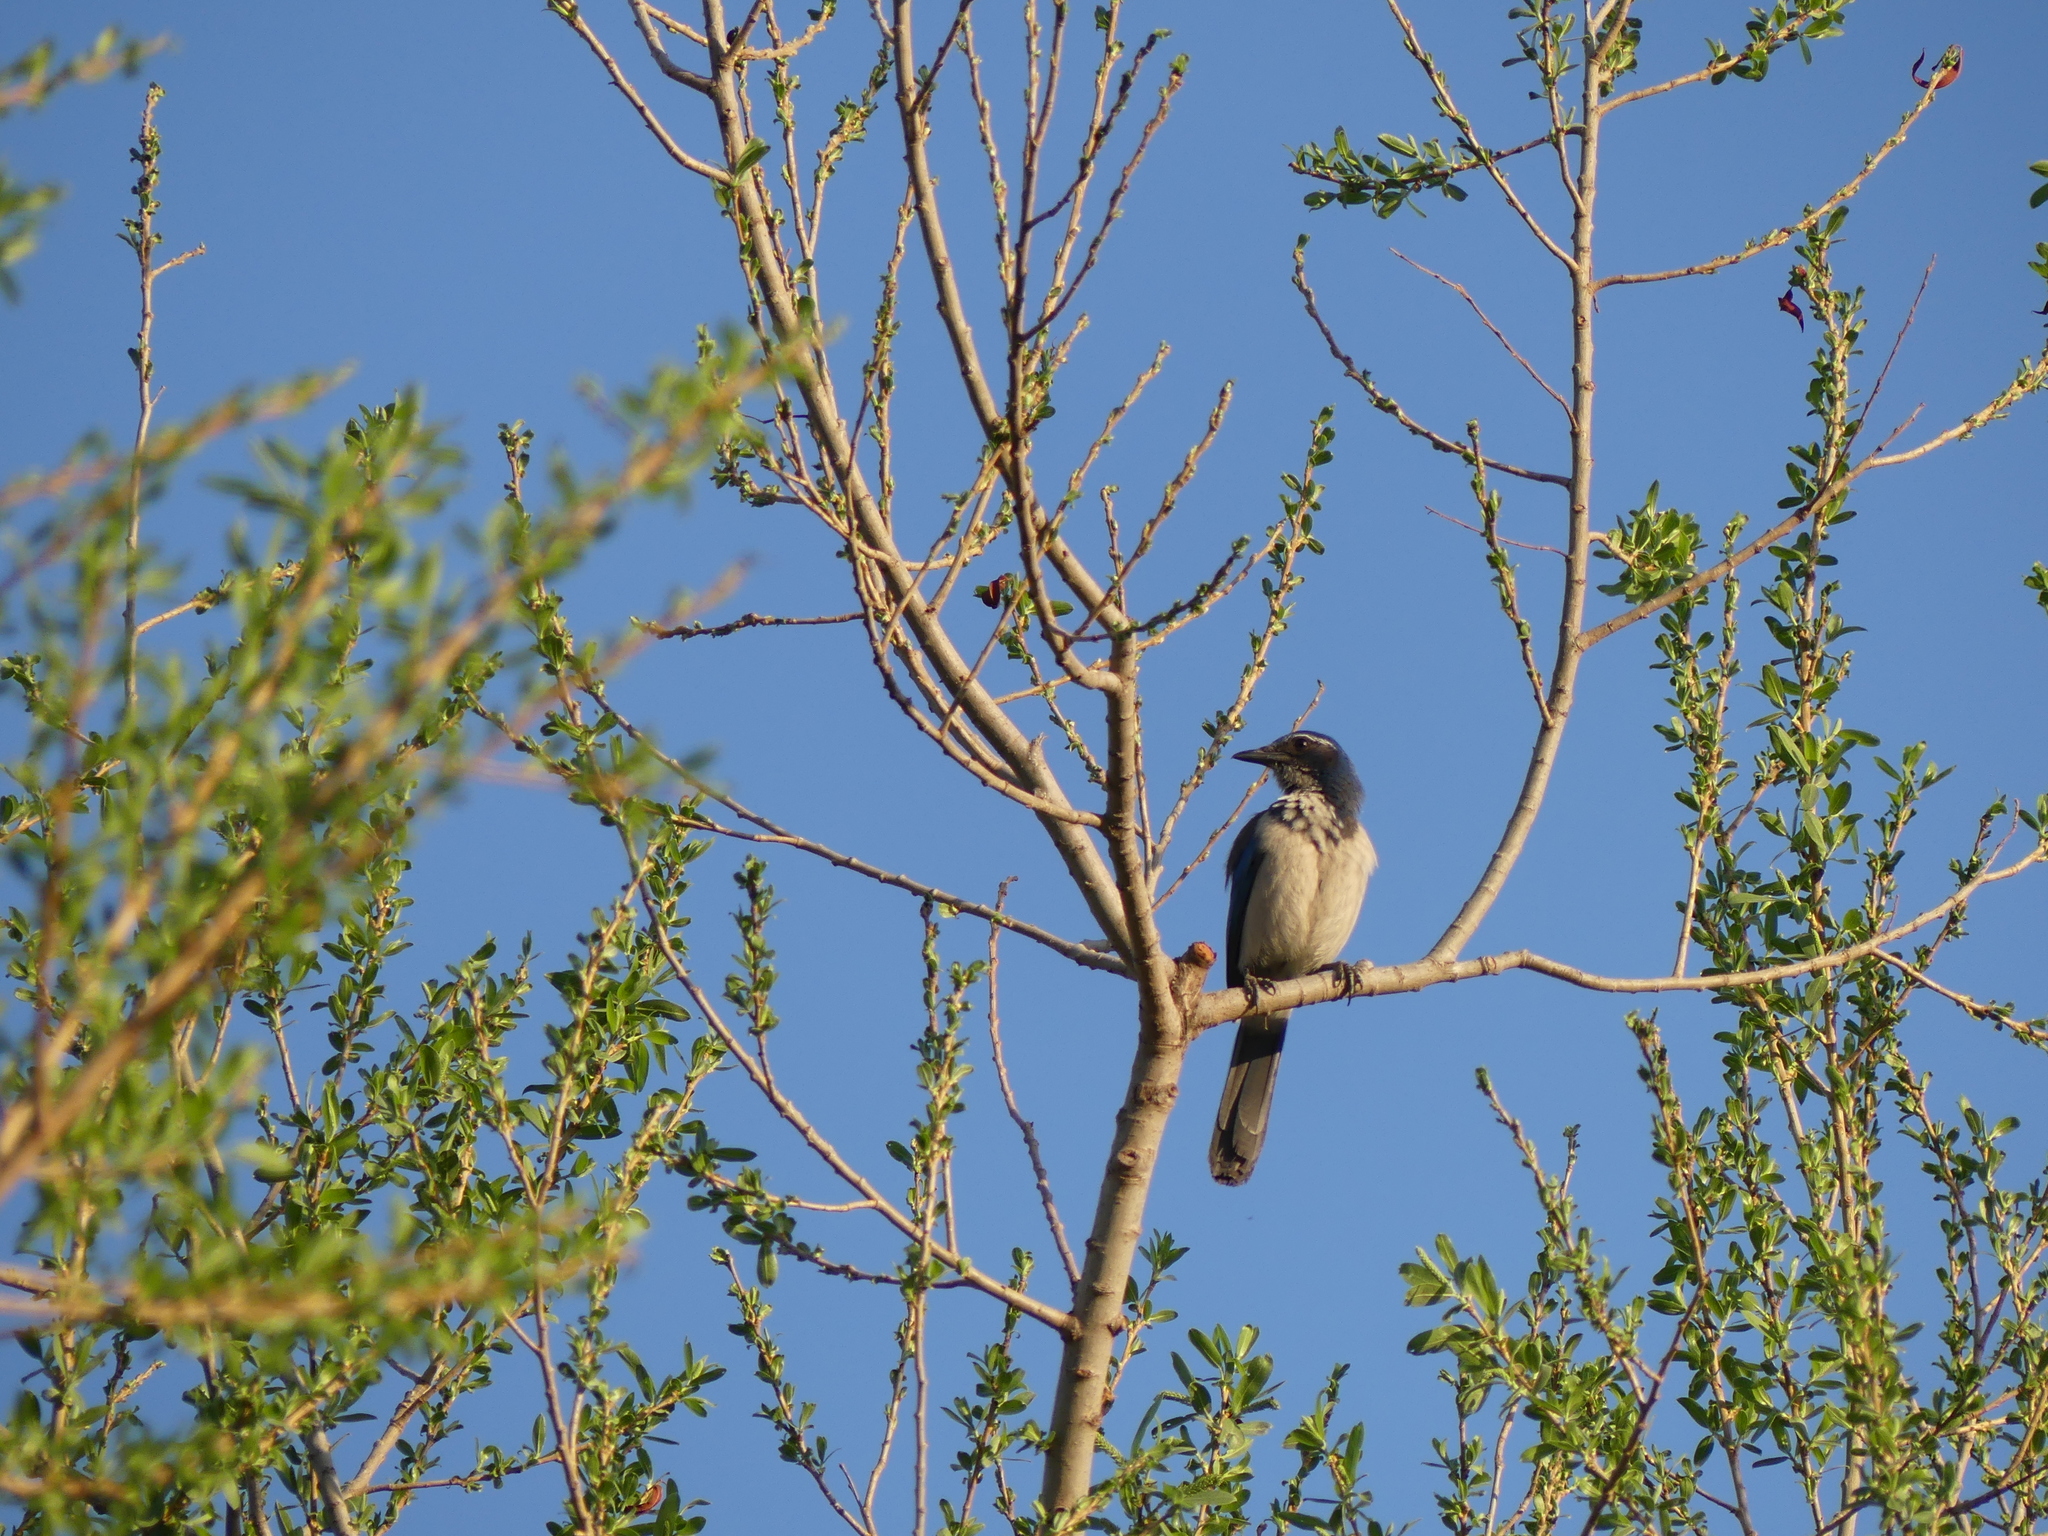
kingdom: Animalia
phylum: Chordata
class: Aves
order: Passeriformes
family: Corvidae
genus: Aphelocoma
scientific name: Aphelocoma californica
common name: California scrub-jay
